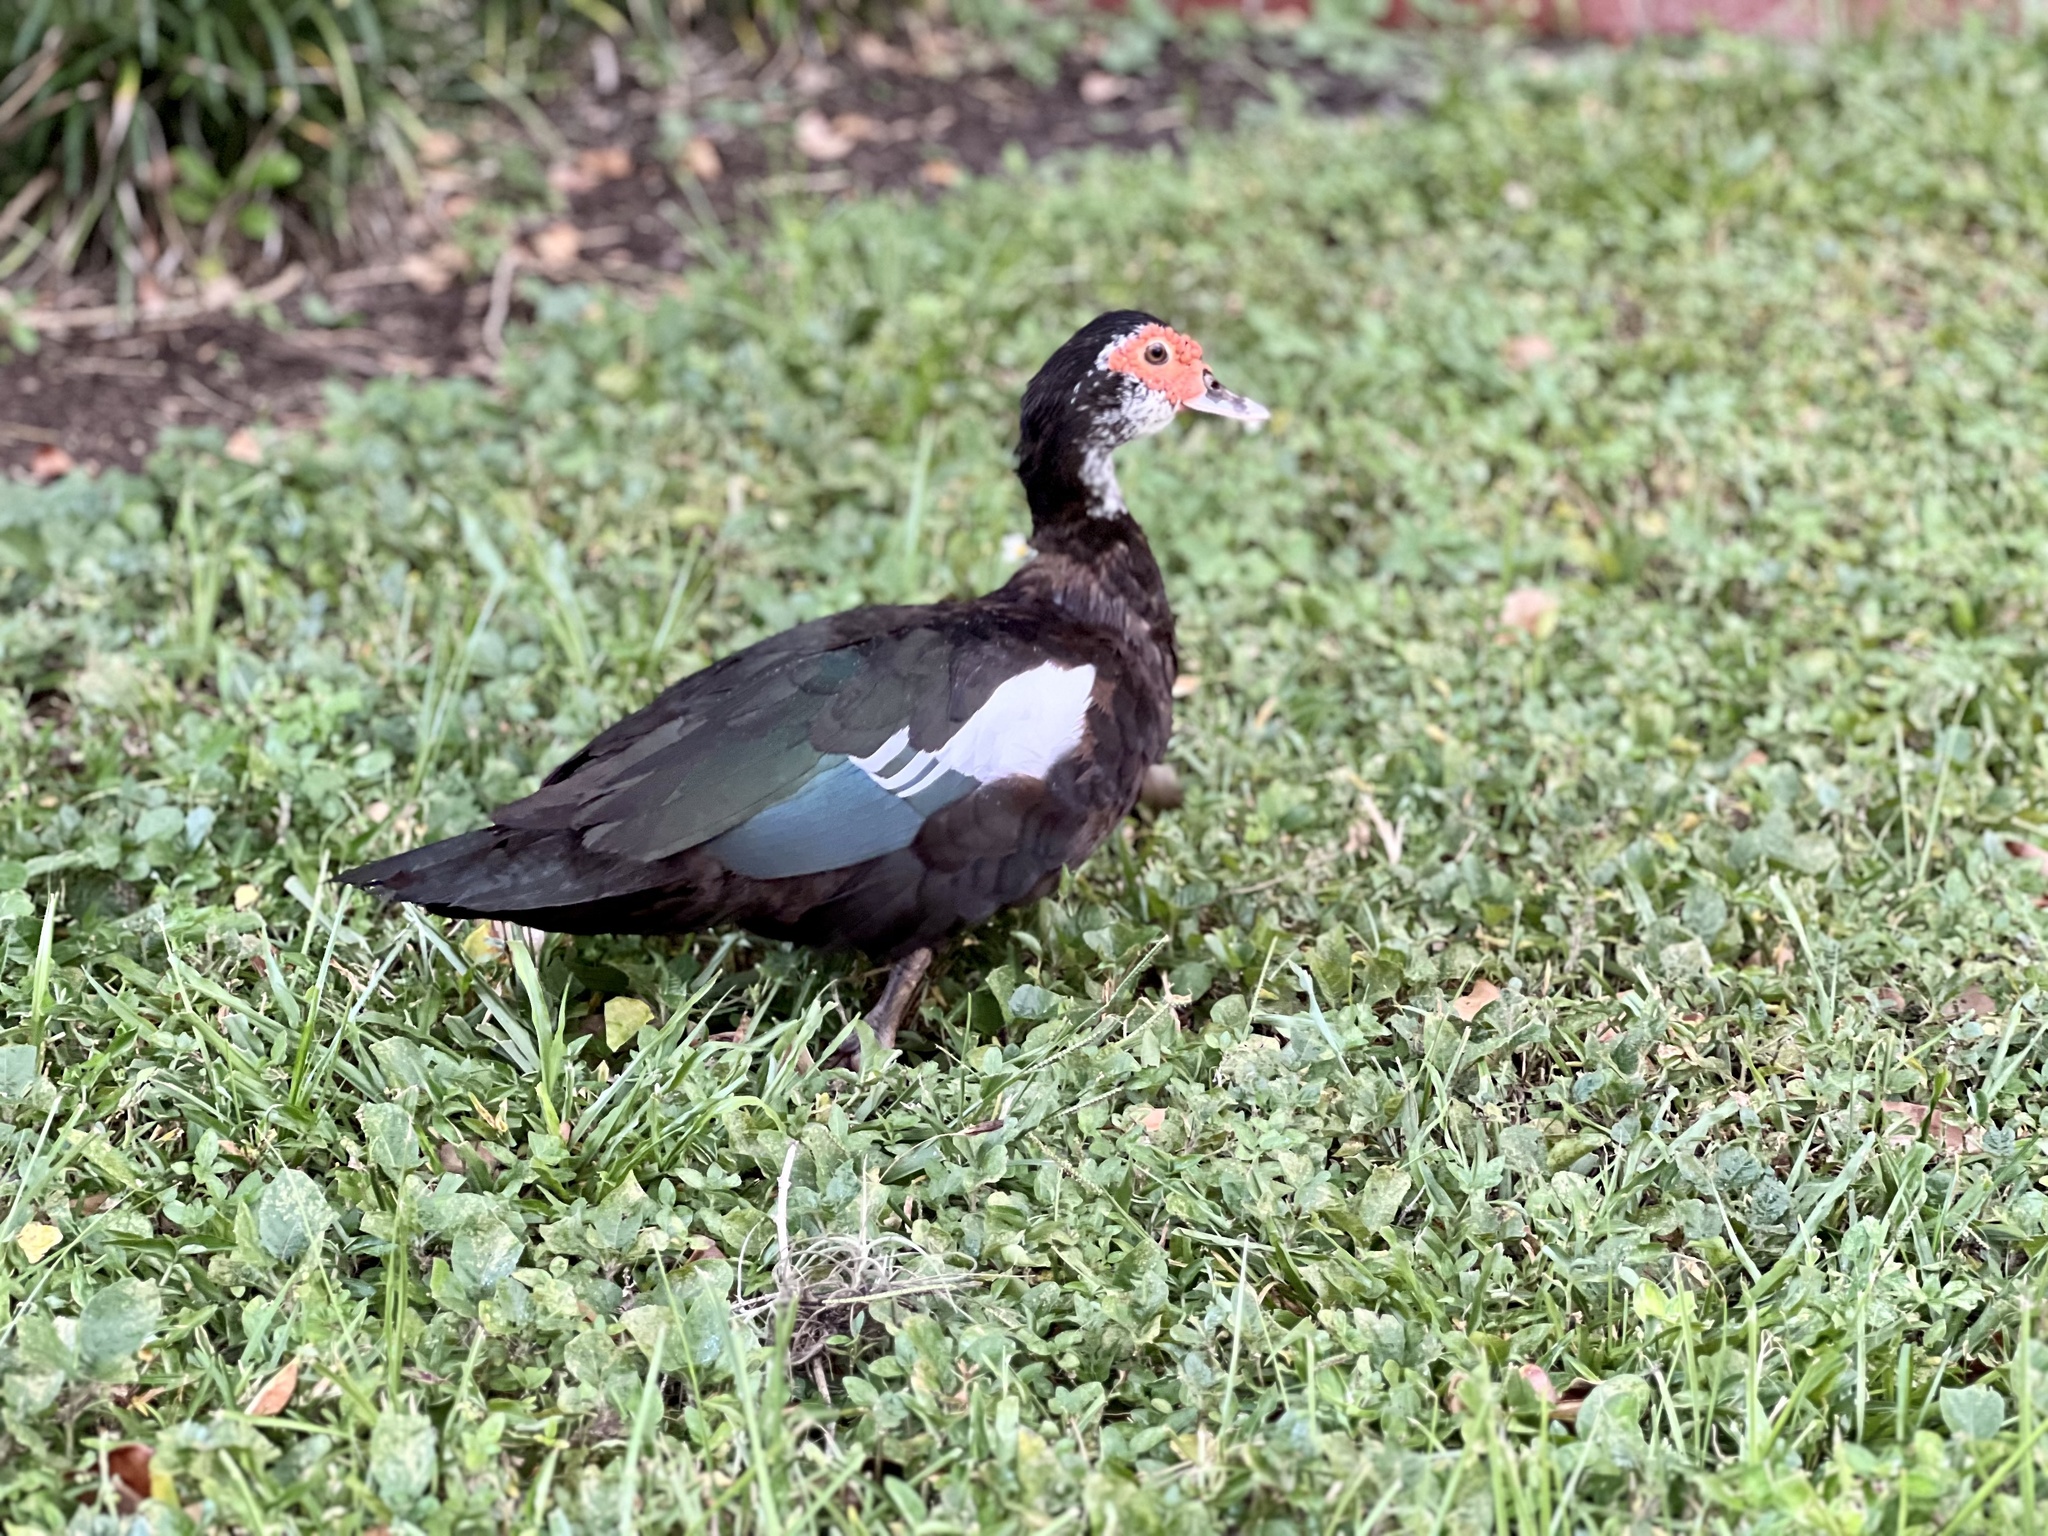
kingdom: Animalia
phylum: Chordata
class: Aves
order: Anseriformes
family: Anatidae
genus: Cairina
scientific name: Cairina moschata
